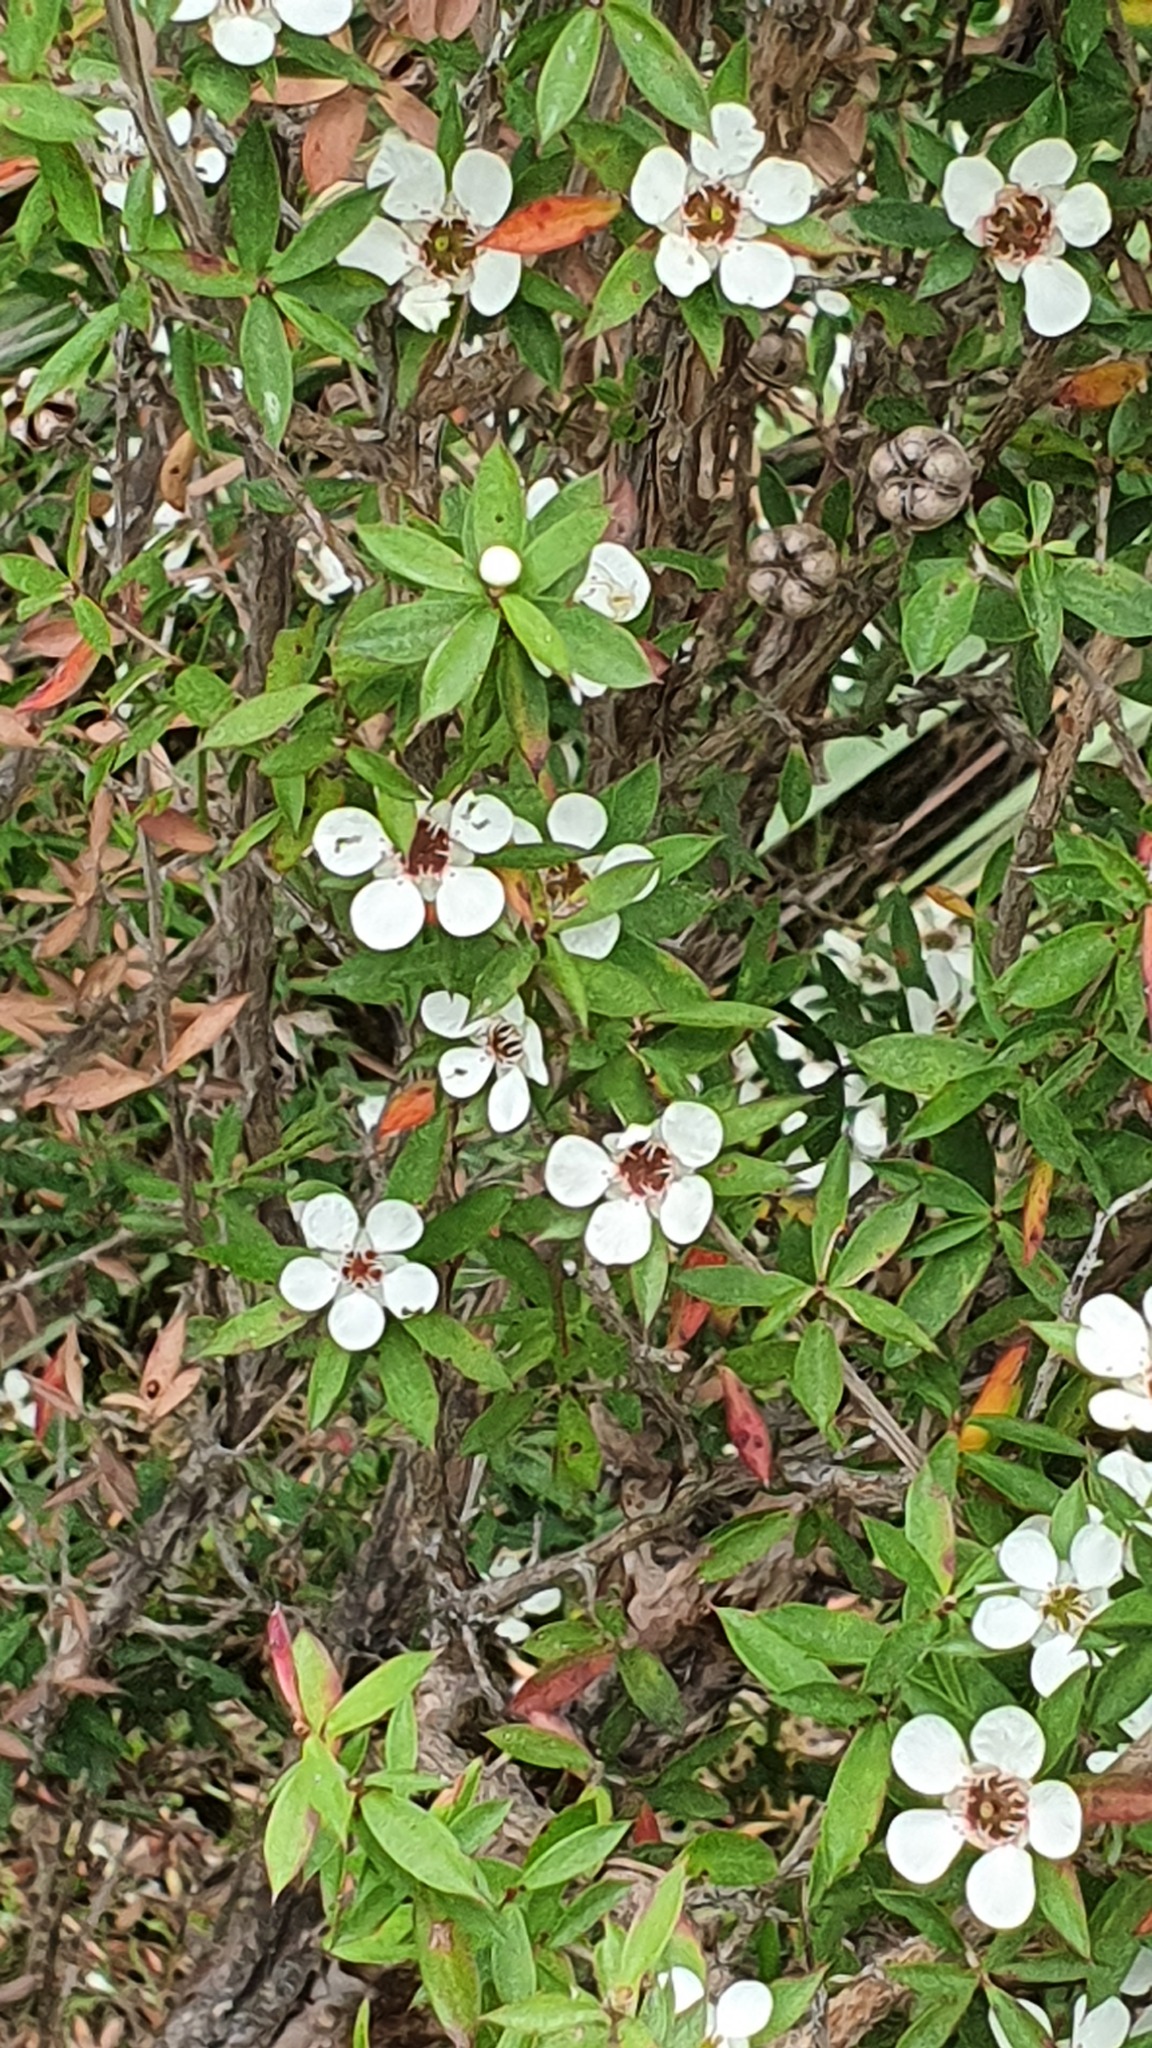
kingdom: Plantae
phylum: Tracheophyta
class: Magnoliopsida
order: Myrtales
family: Myrtaceae
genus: Leptospermum
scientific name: Leptospermum scoparium
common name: Broom tea-tree
